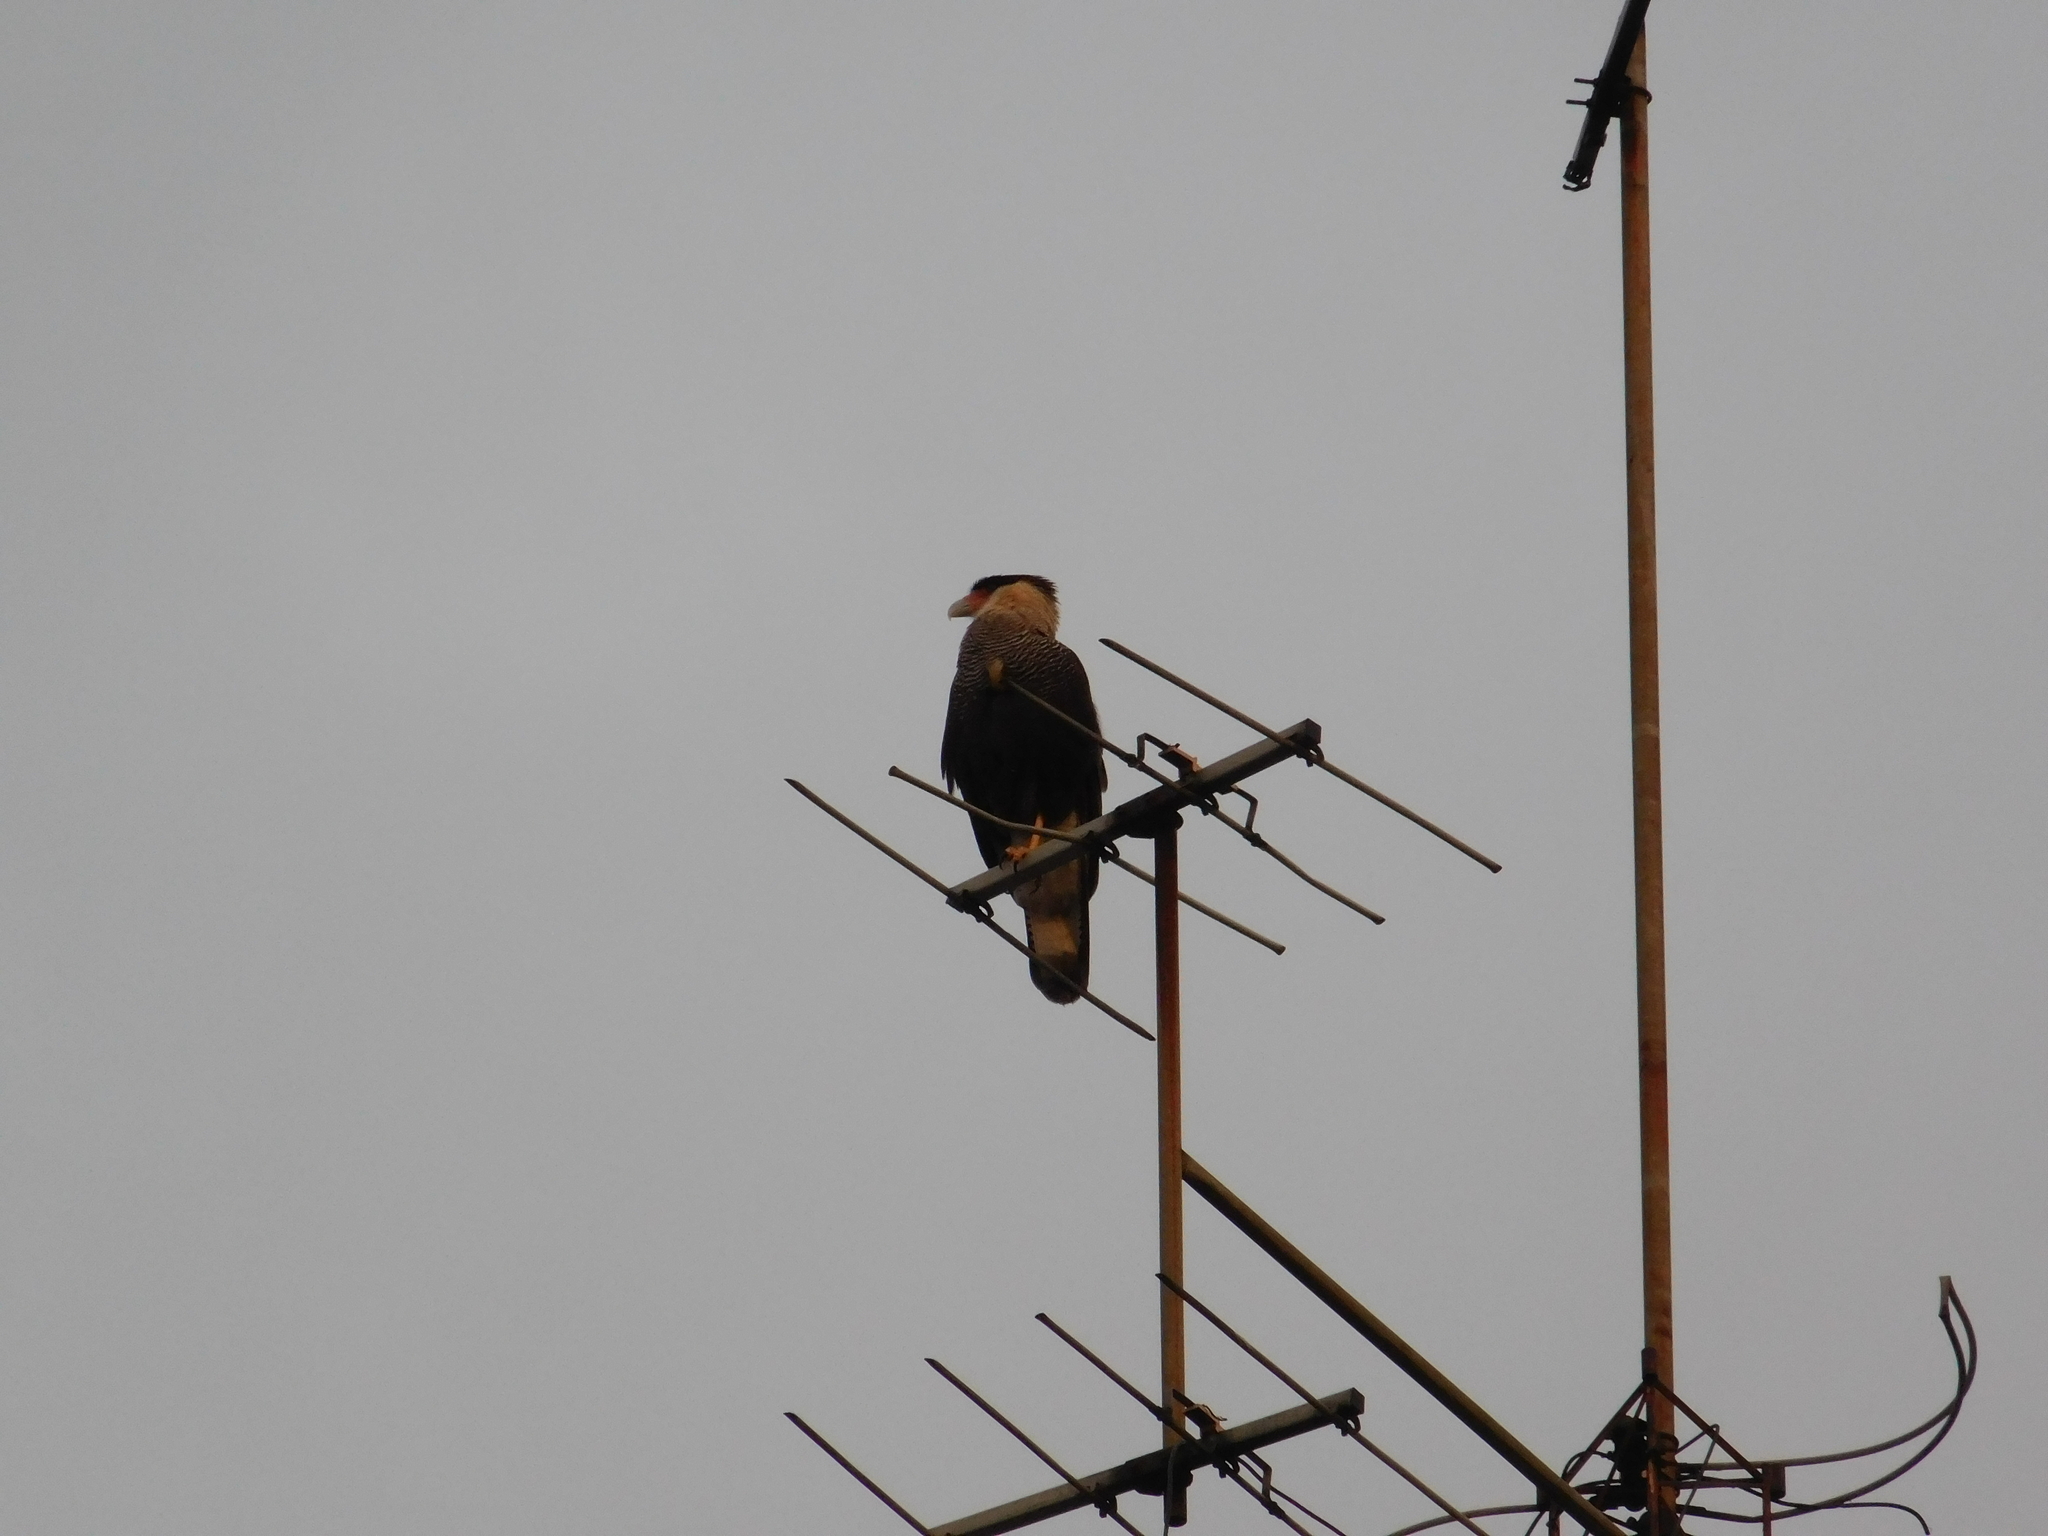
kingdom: Animalia
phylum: Chordata
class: Aves
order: Falconiformes
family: Falconidae
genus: Caracara
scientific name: Caracara plancus
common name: Southern caracara
